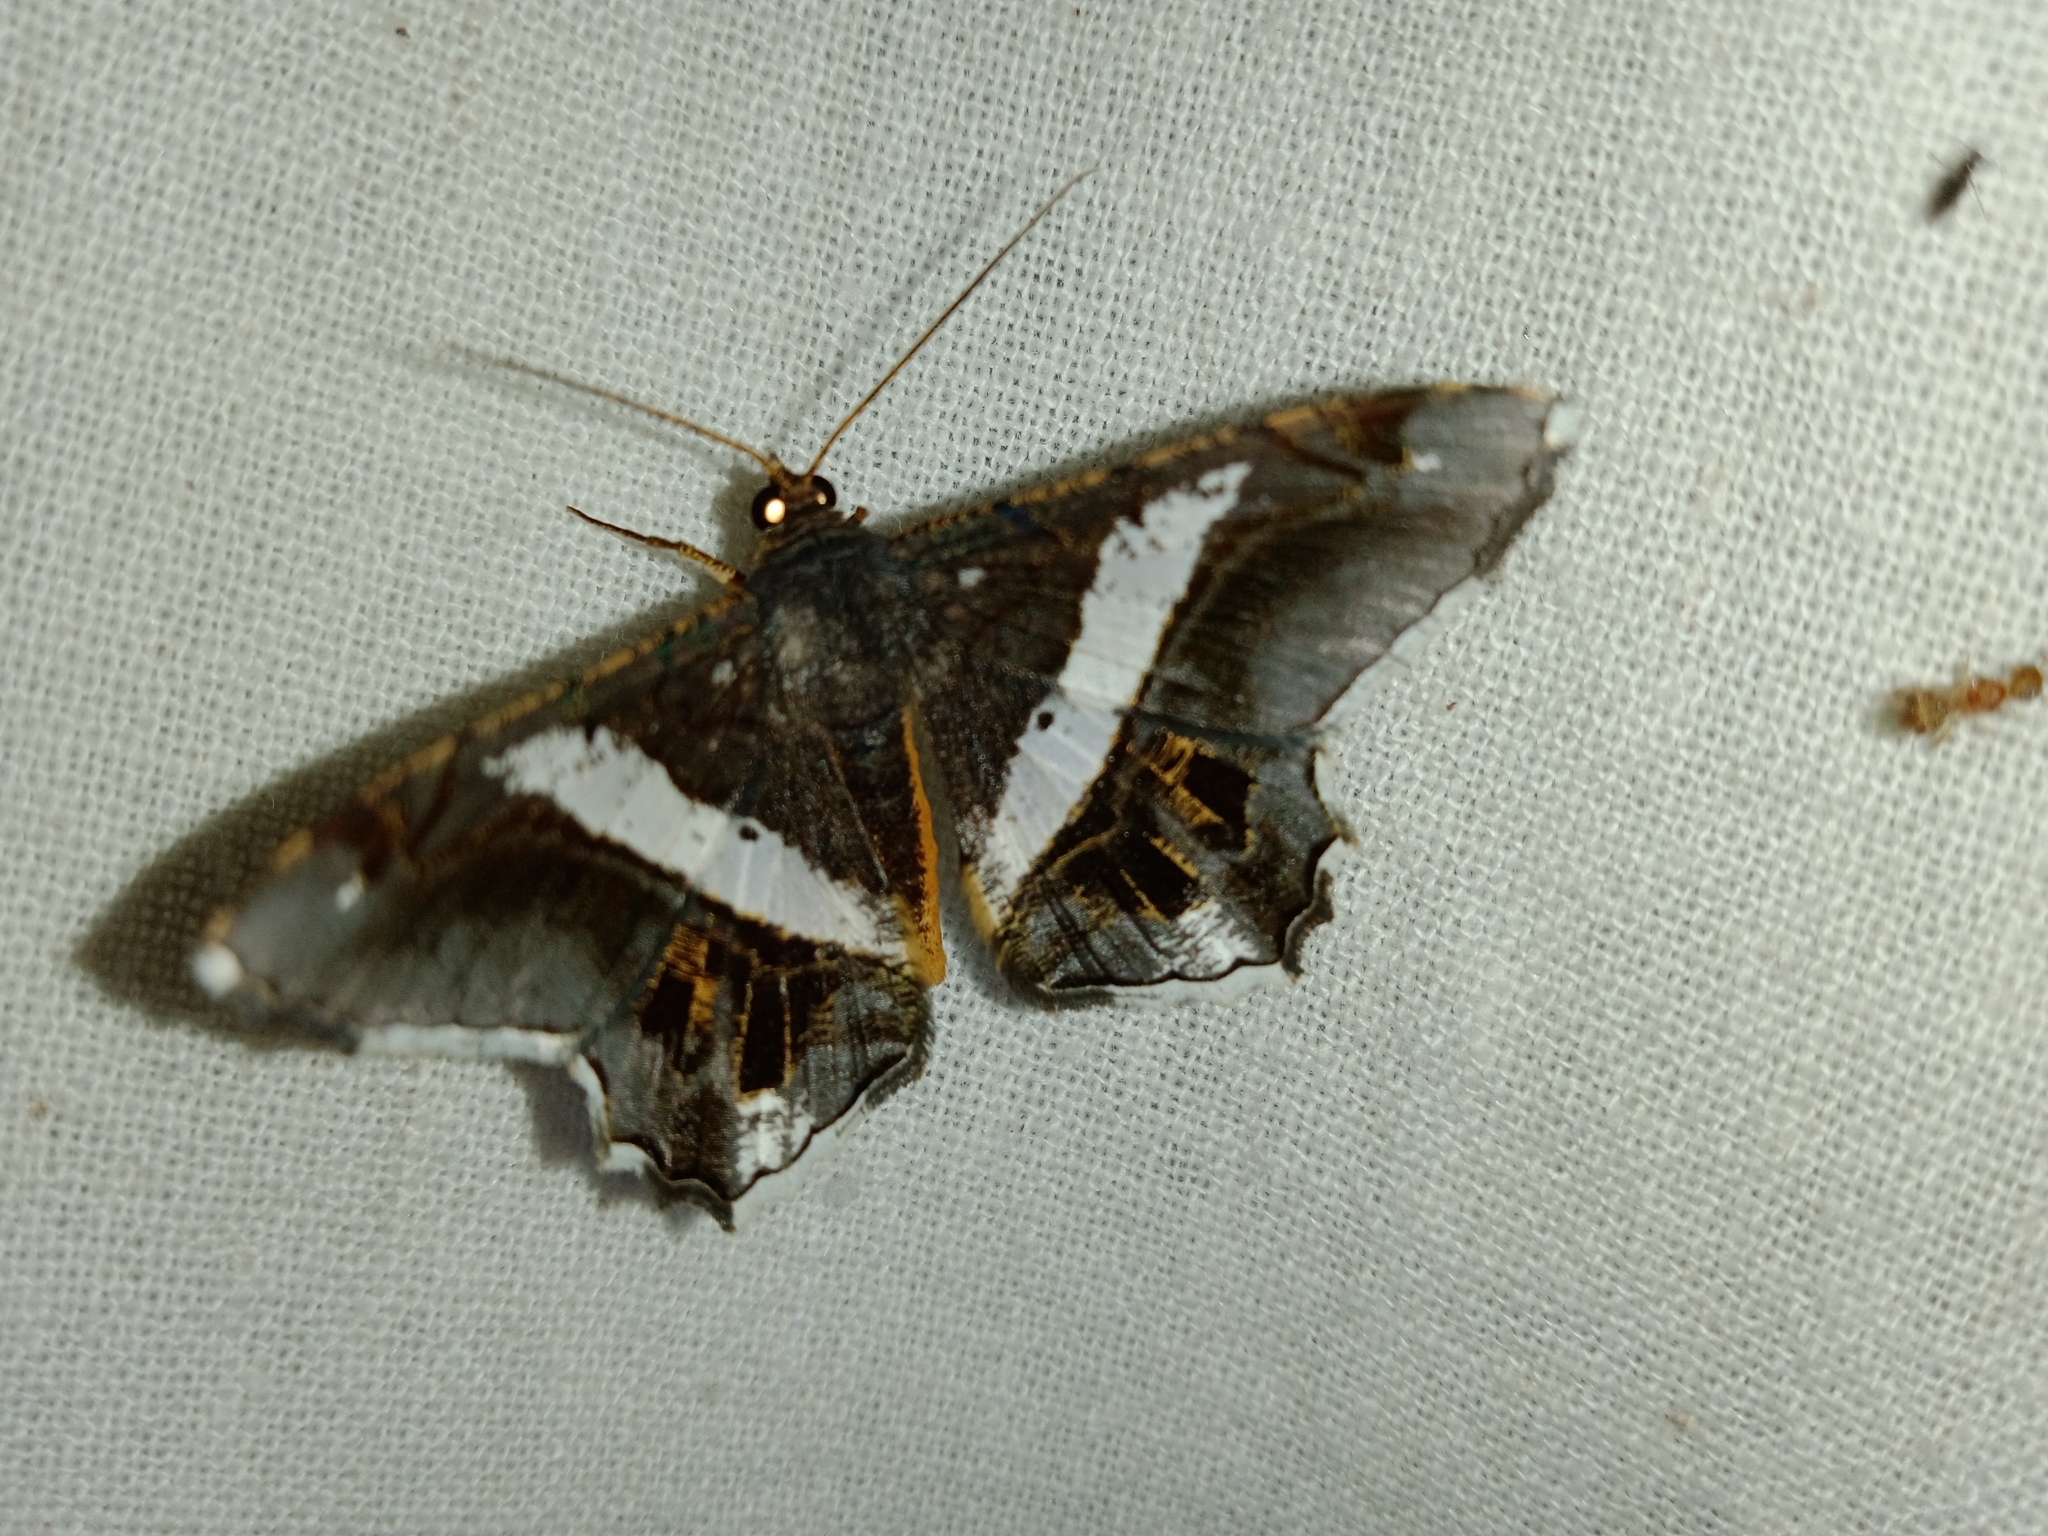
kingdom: Animalia
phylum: Arthropoda
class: Insecta
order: Lepidoptera
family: Geometridae
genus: Chiasmia
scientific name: Chiasmia nora
